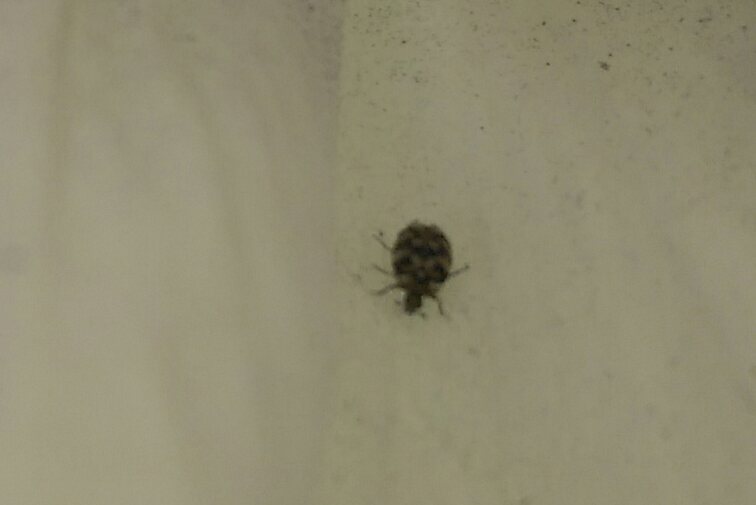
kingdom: Animalia
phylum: Arthropoda
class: Insecta
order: Coleoptera
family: Dermestidae
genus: Anthrenus
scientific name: Anthrenus verbasci
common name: Varied carpet beetle
